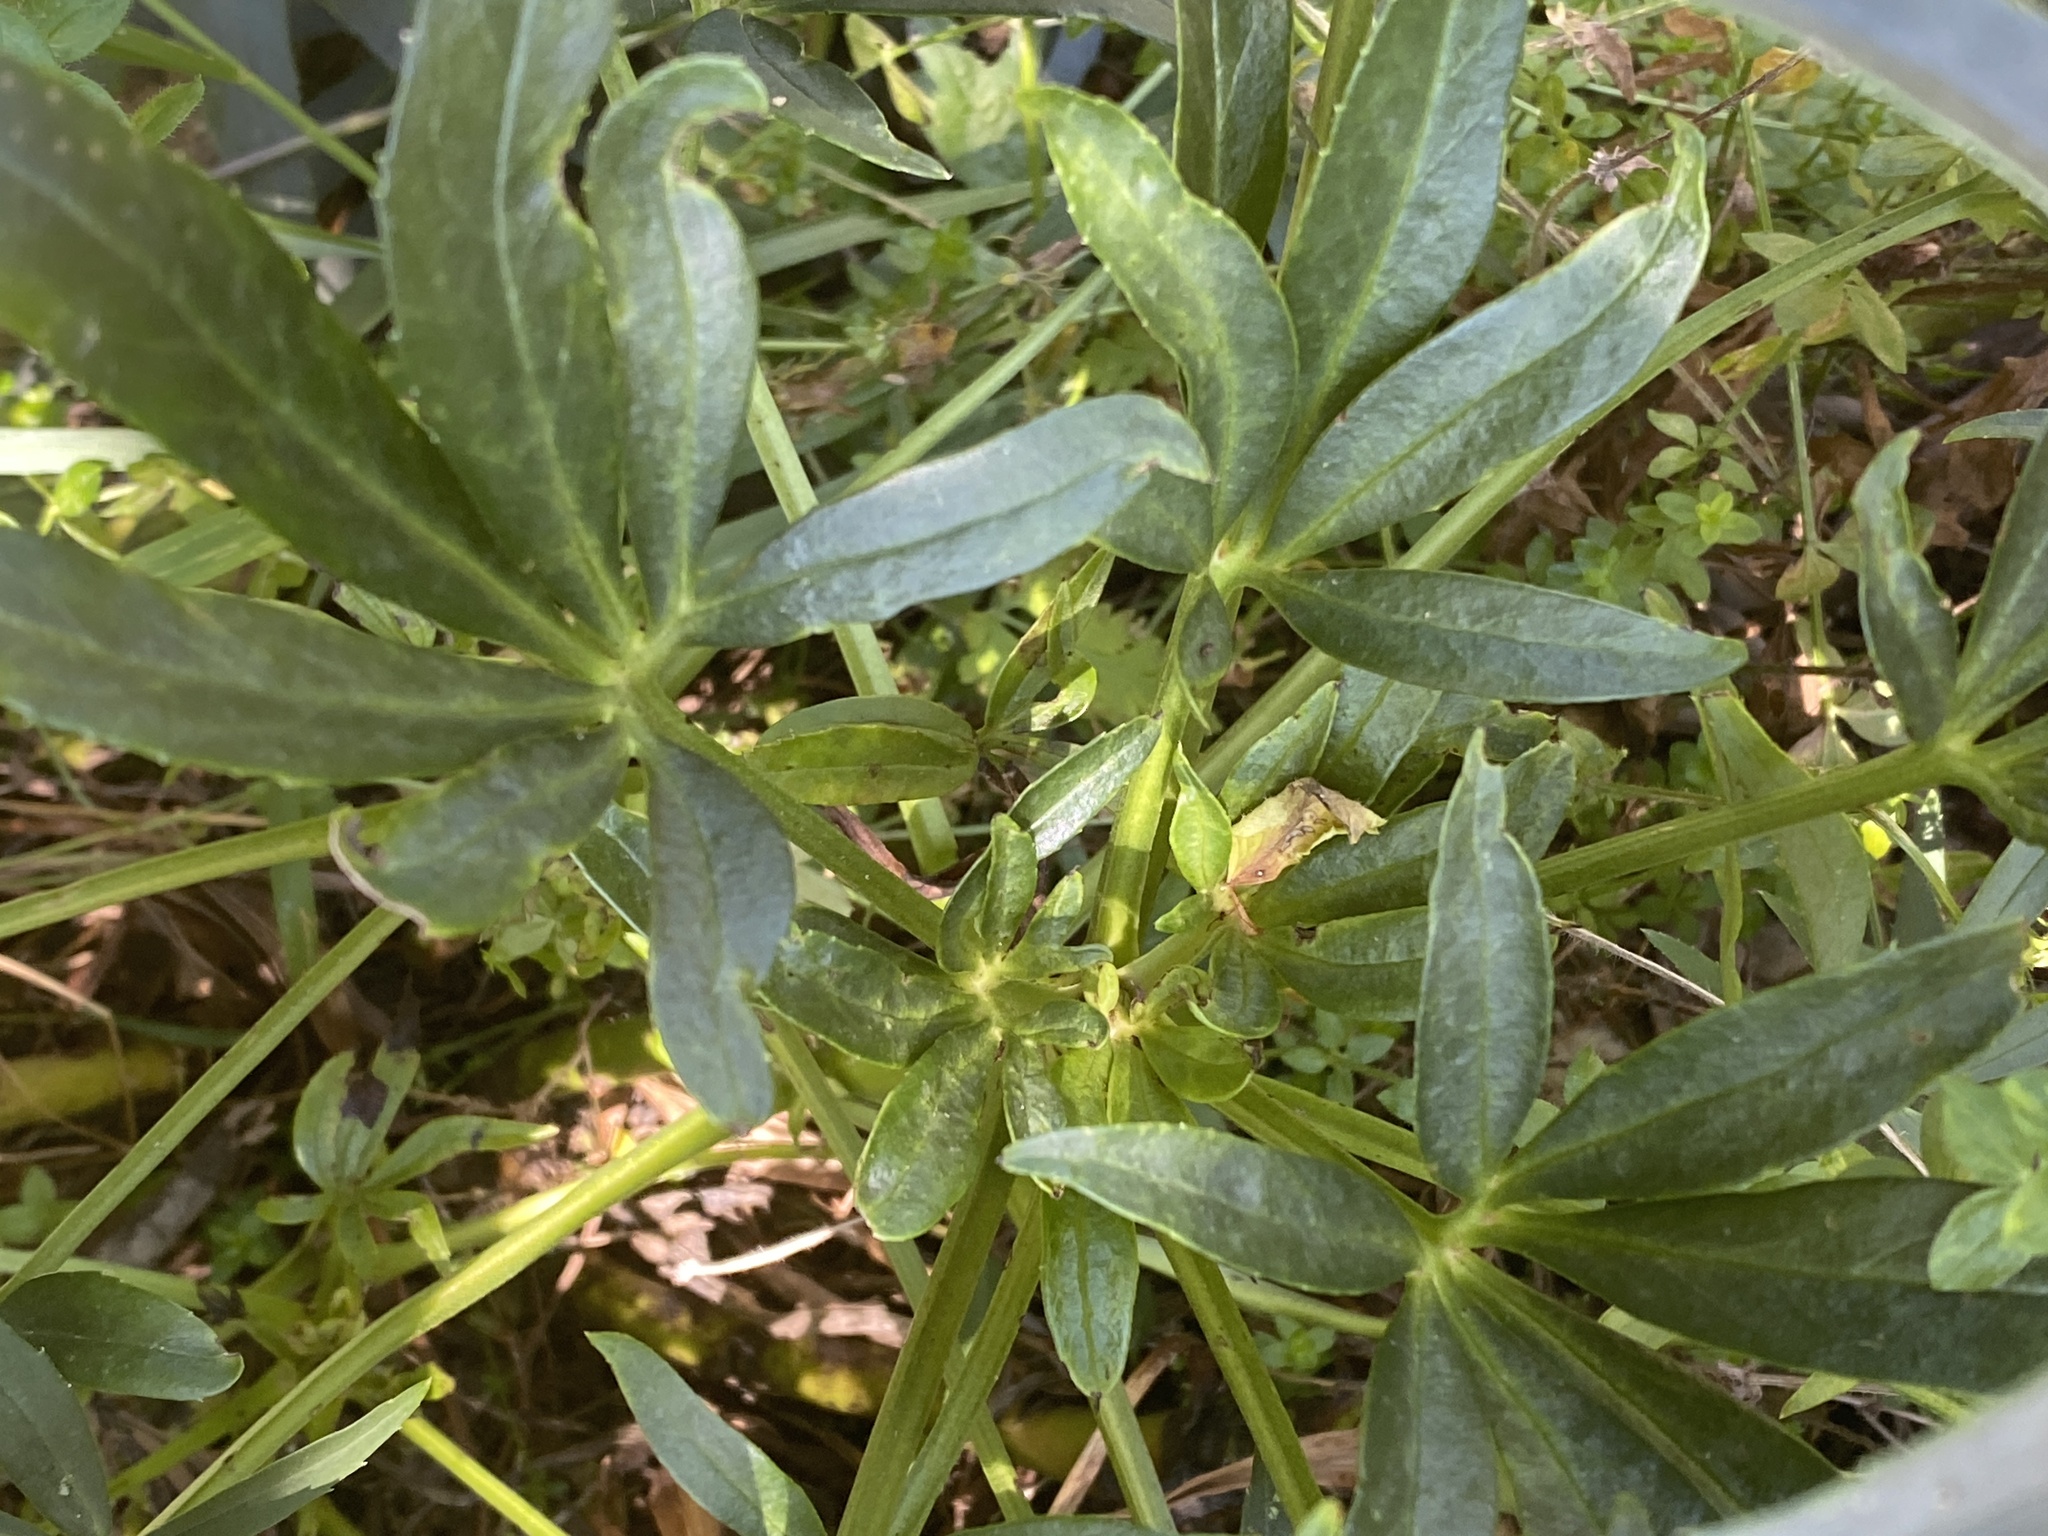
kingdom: Plantae
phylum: Tracheophyta
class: Magnoliopsida
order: Ranunculales
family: Ranunculaceae
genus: Helleborus
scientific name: Helleborus foetidus
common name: Stinking hellebore
